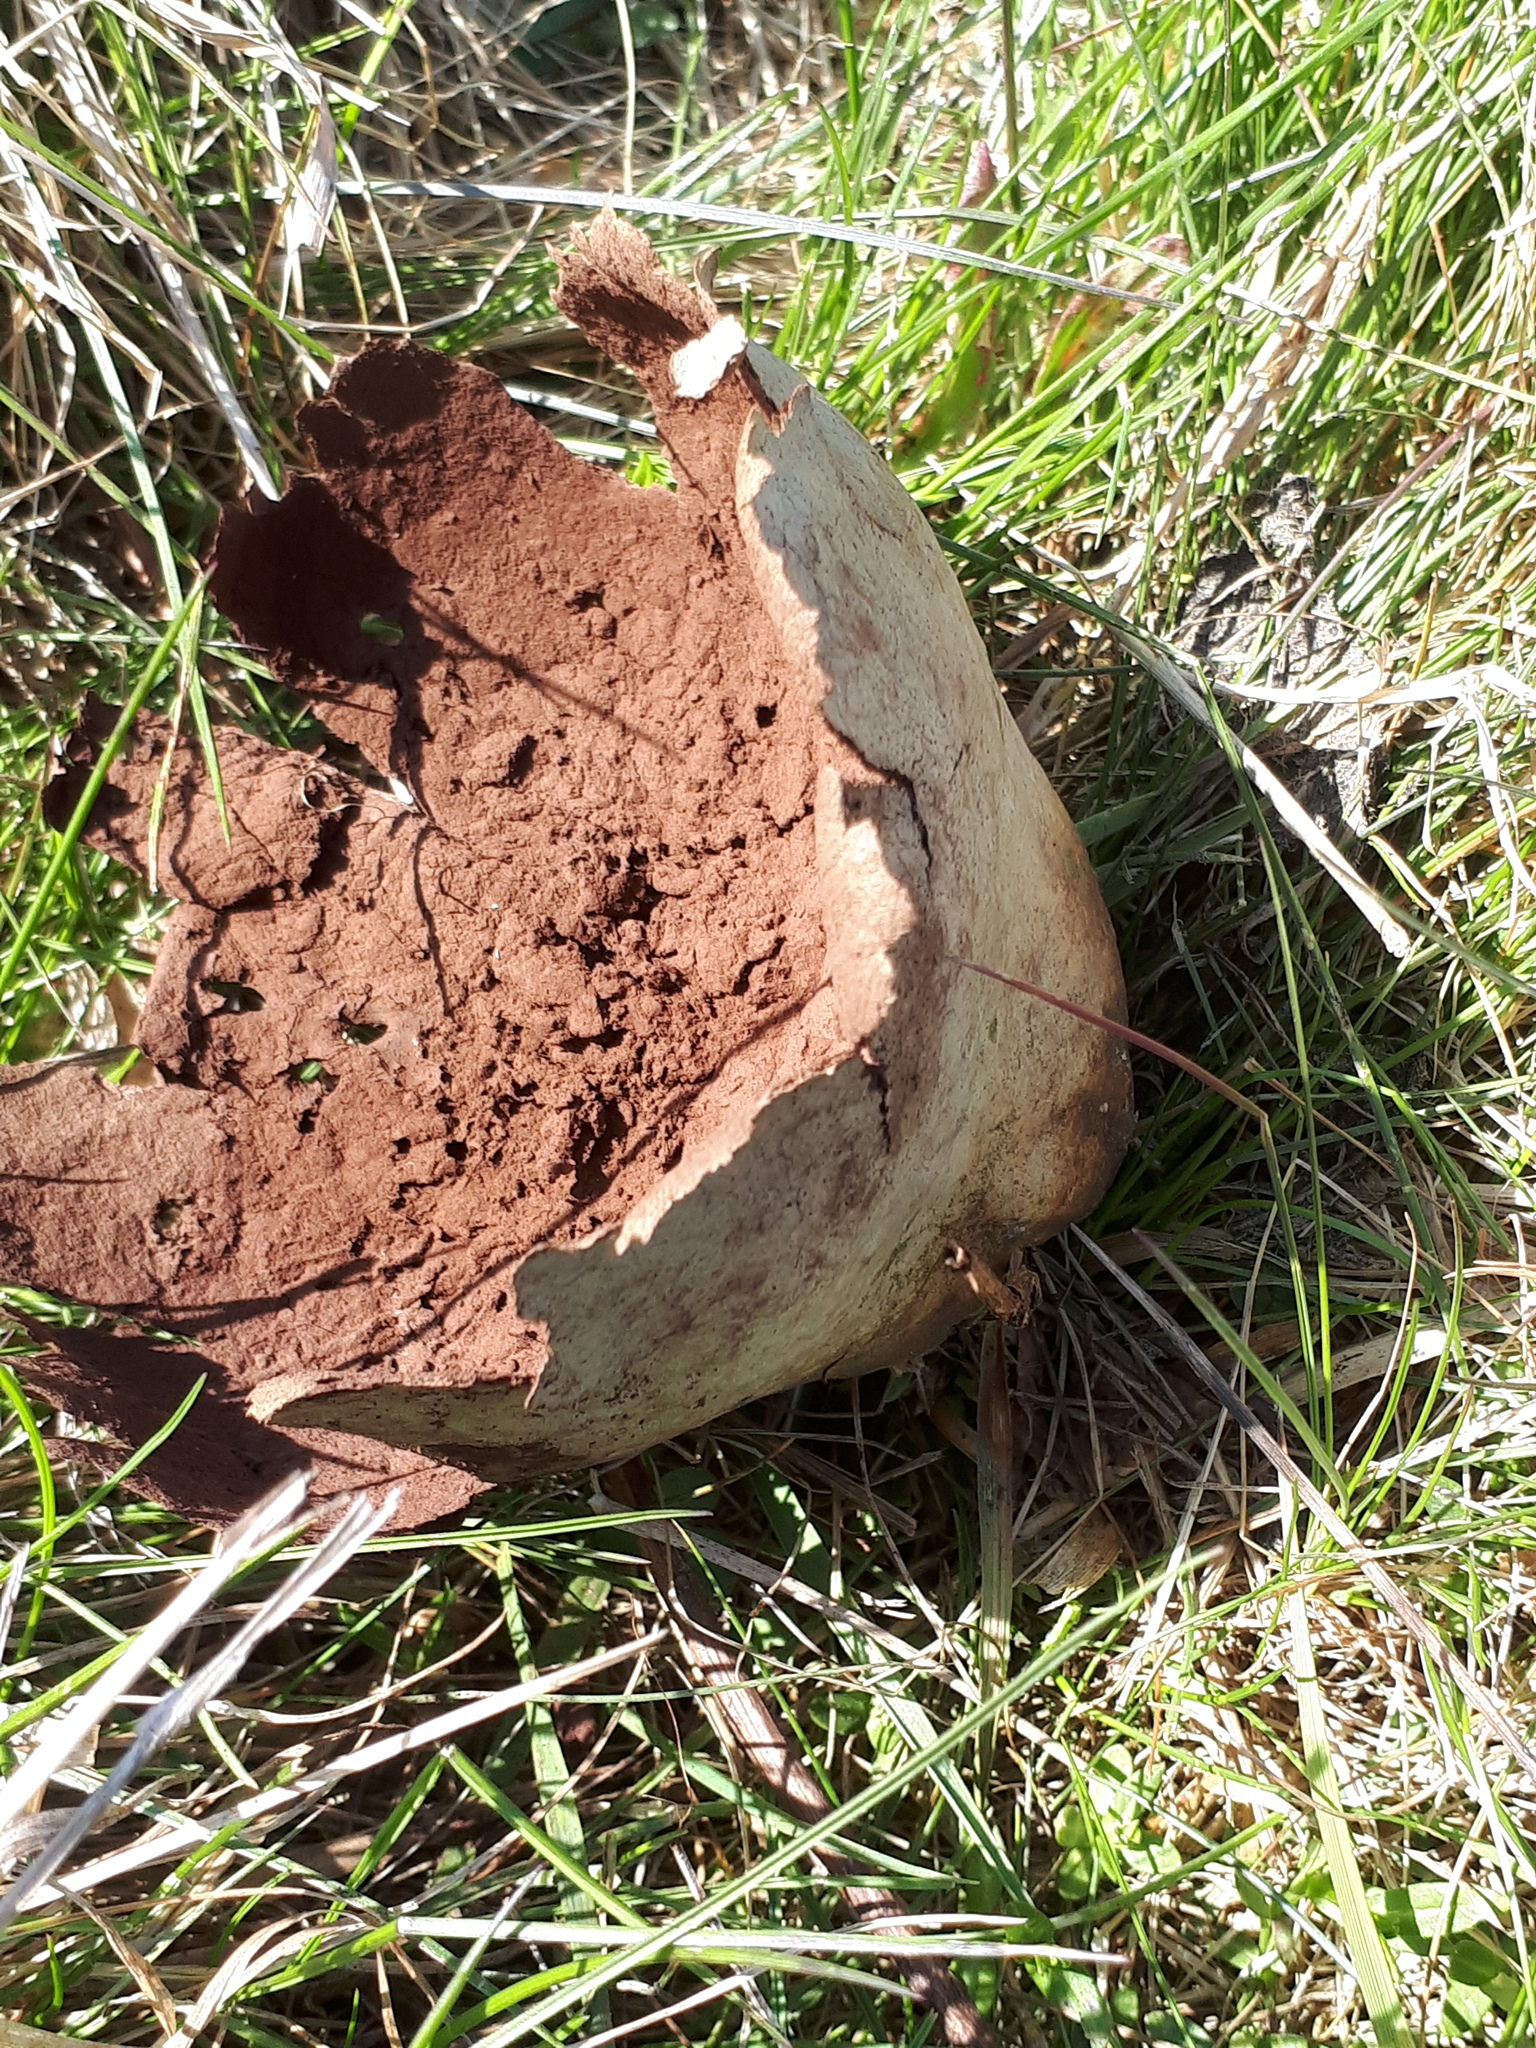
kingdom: Fungi
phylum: Basidiomycota
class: Agaricomycetes
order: Agaricales
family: Lycoperdaceae
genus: Bovistella
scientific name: Bovistella utriformis
